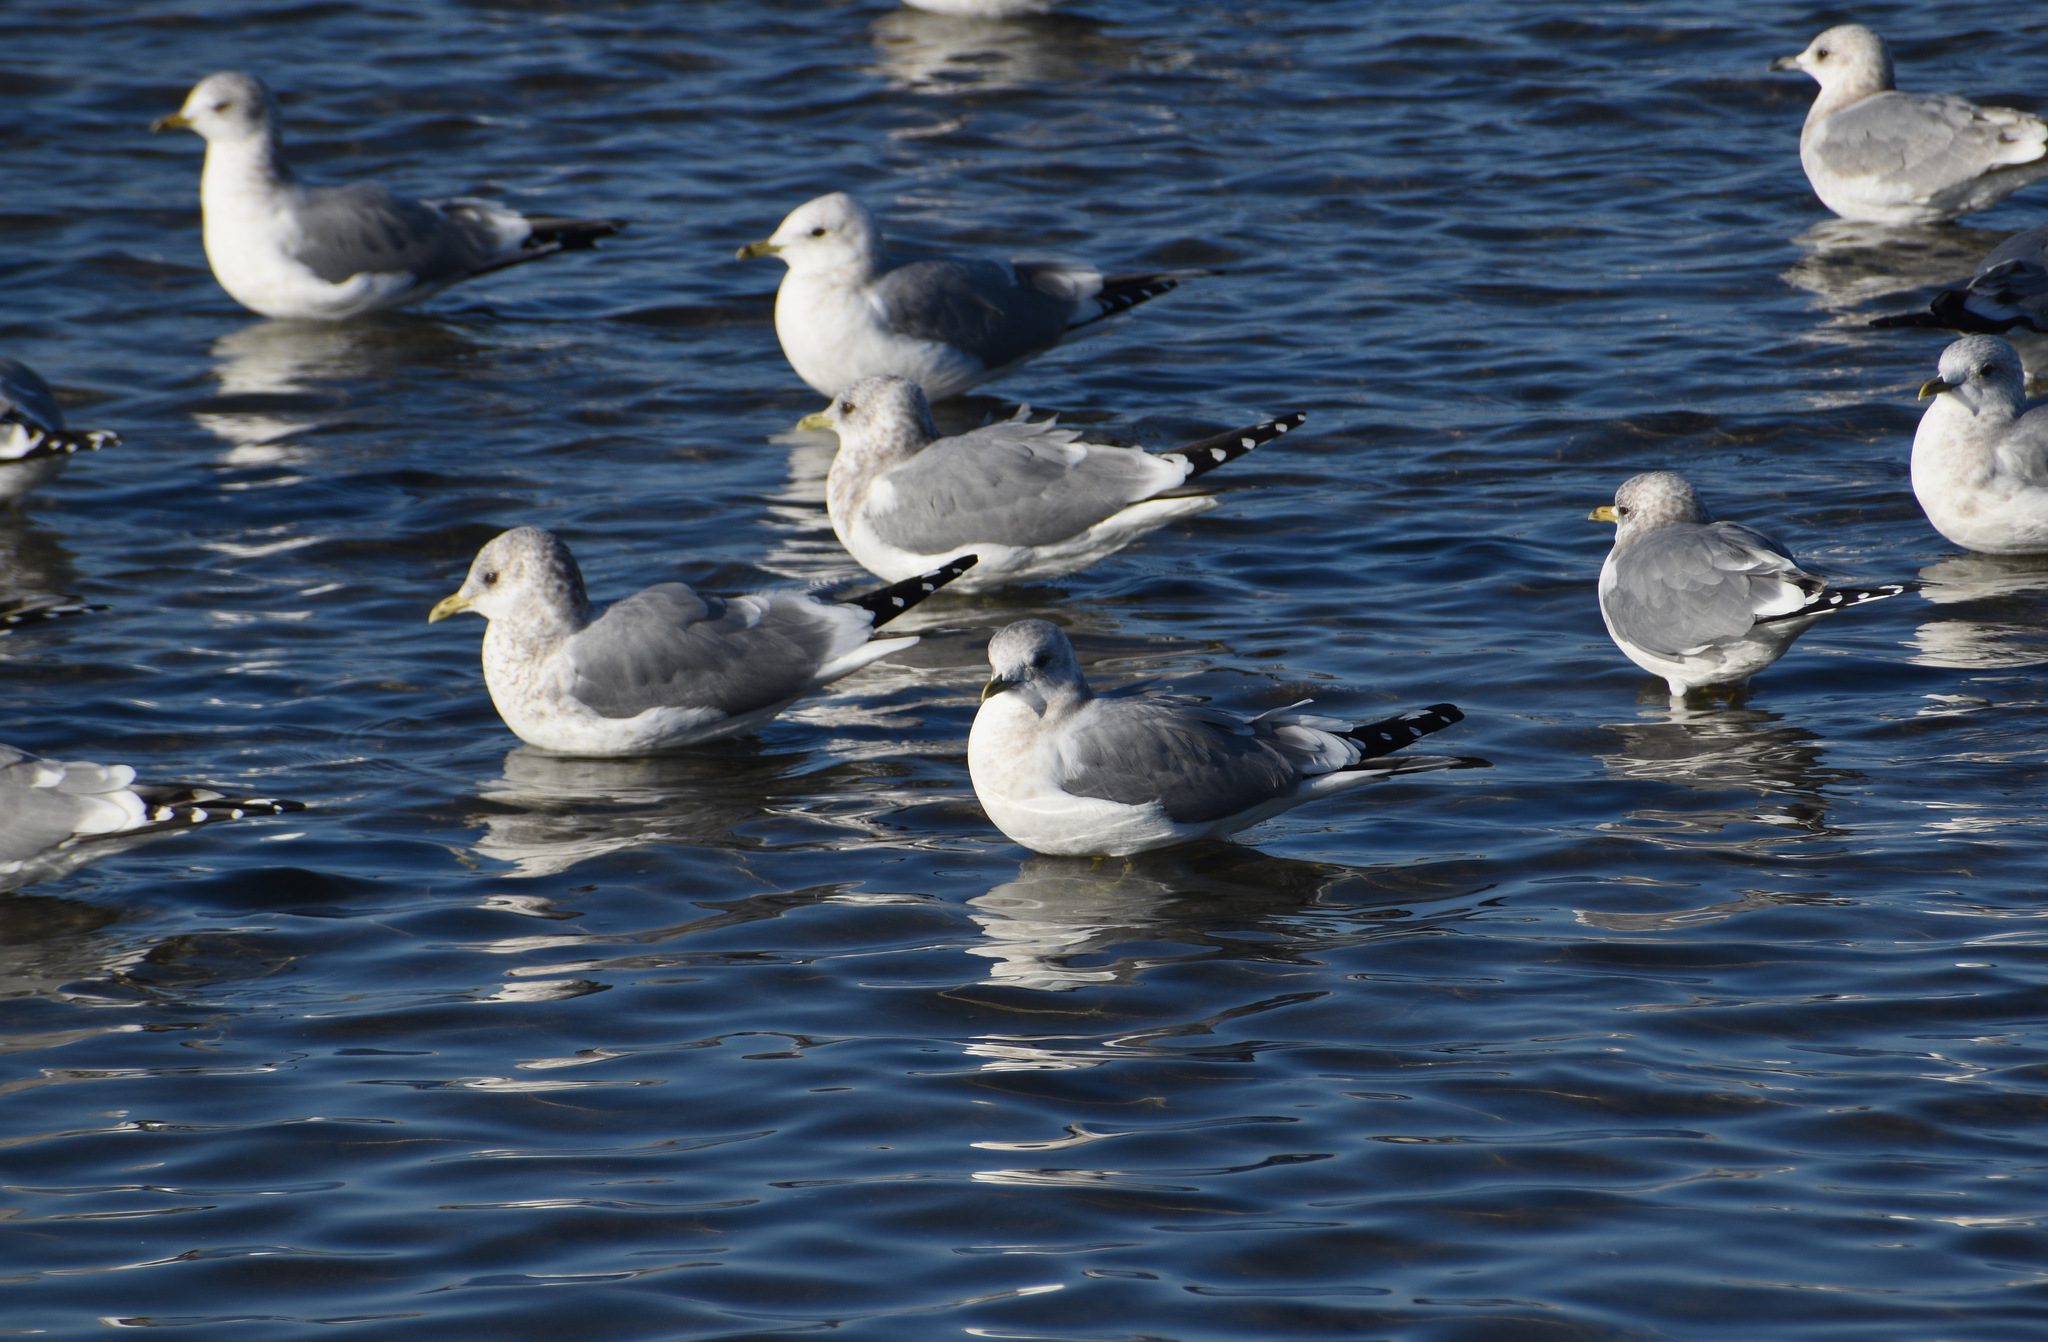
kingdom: Animalia
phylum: Chordata
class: Aves
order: Charadriiformes
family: Laridae
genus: Larus
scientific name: Larus brachyrhynchus
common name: Short-billed gull
